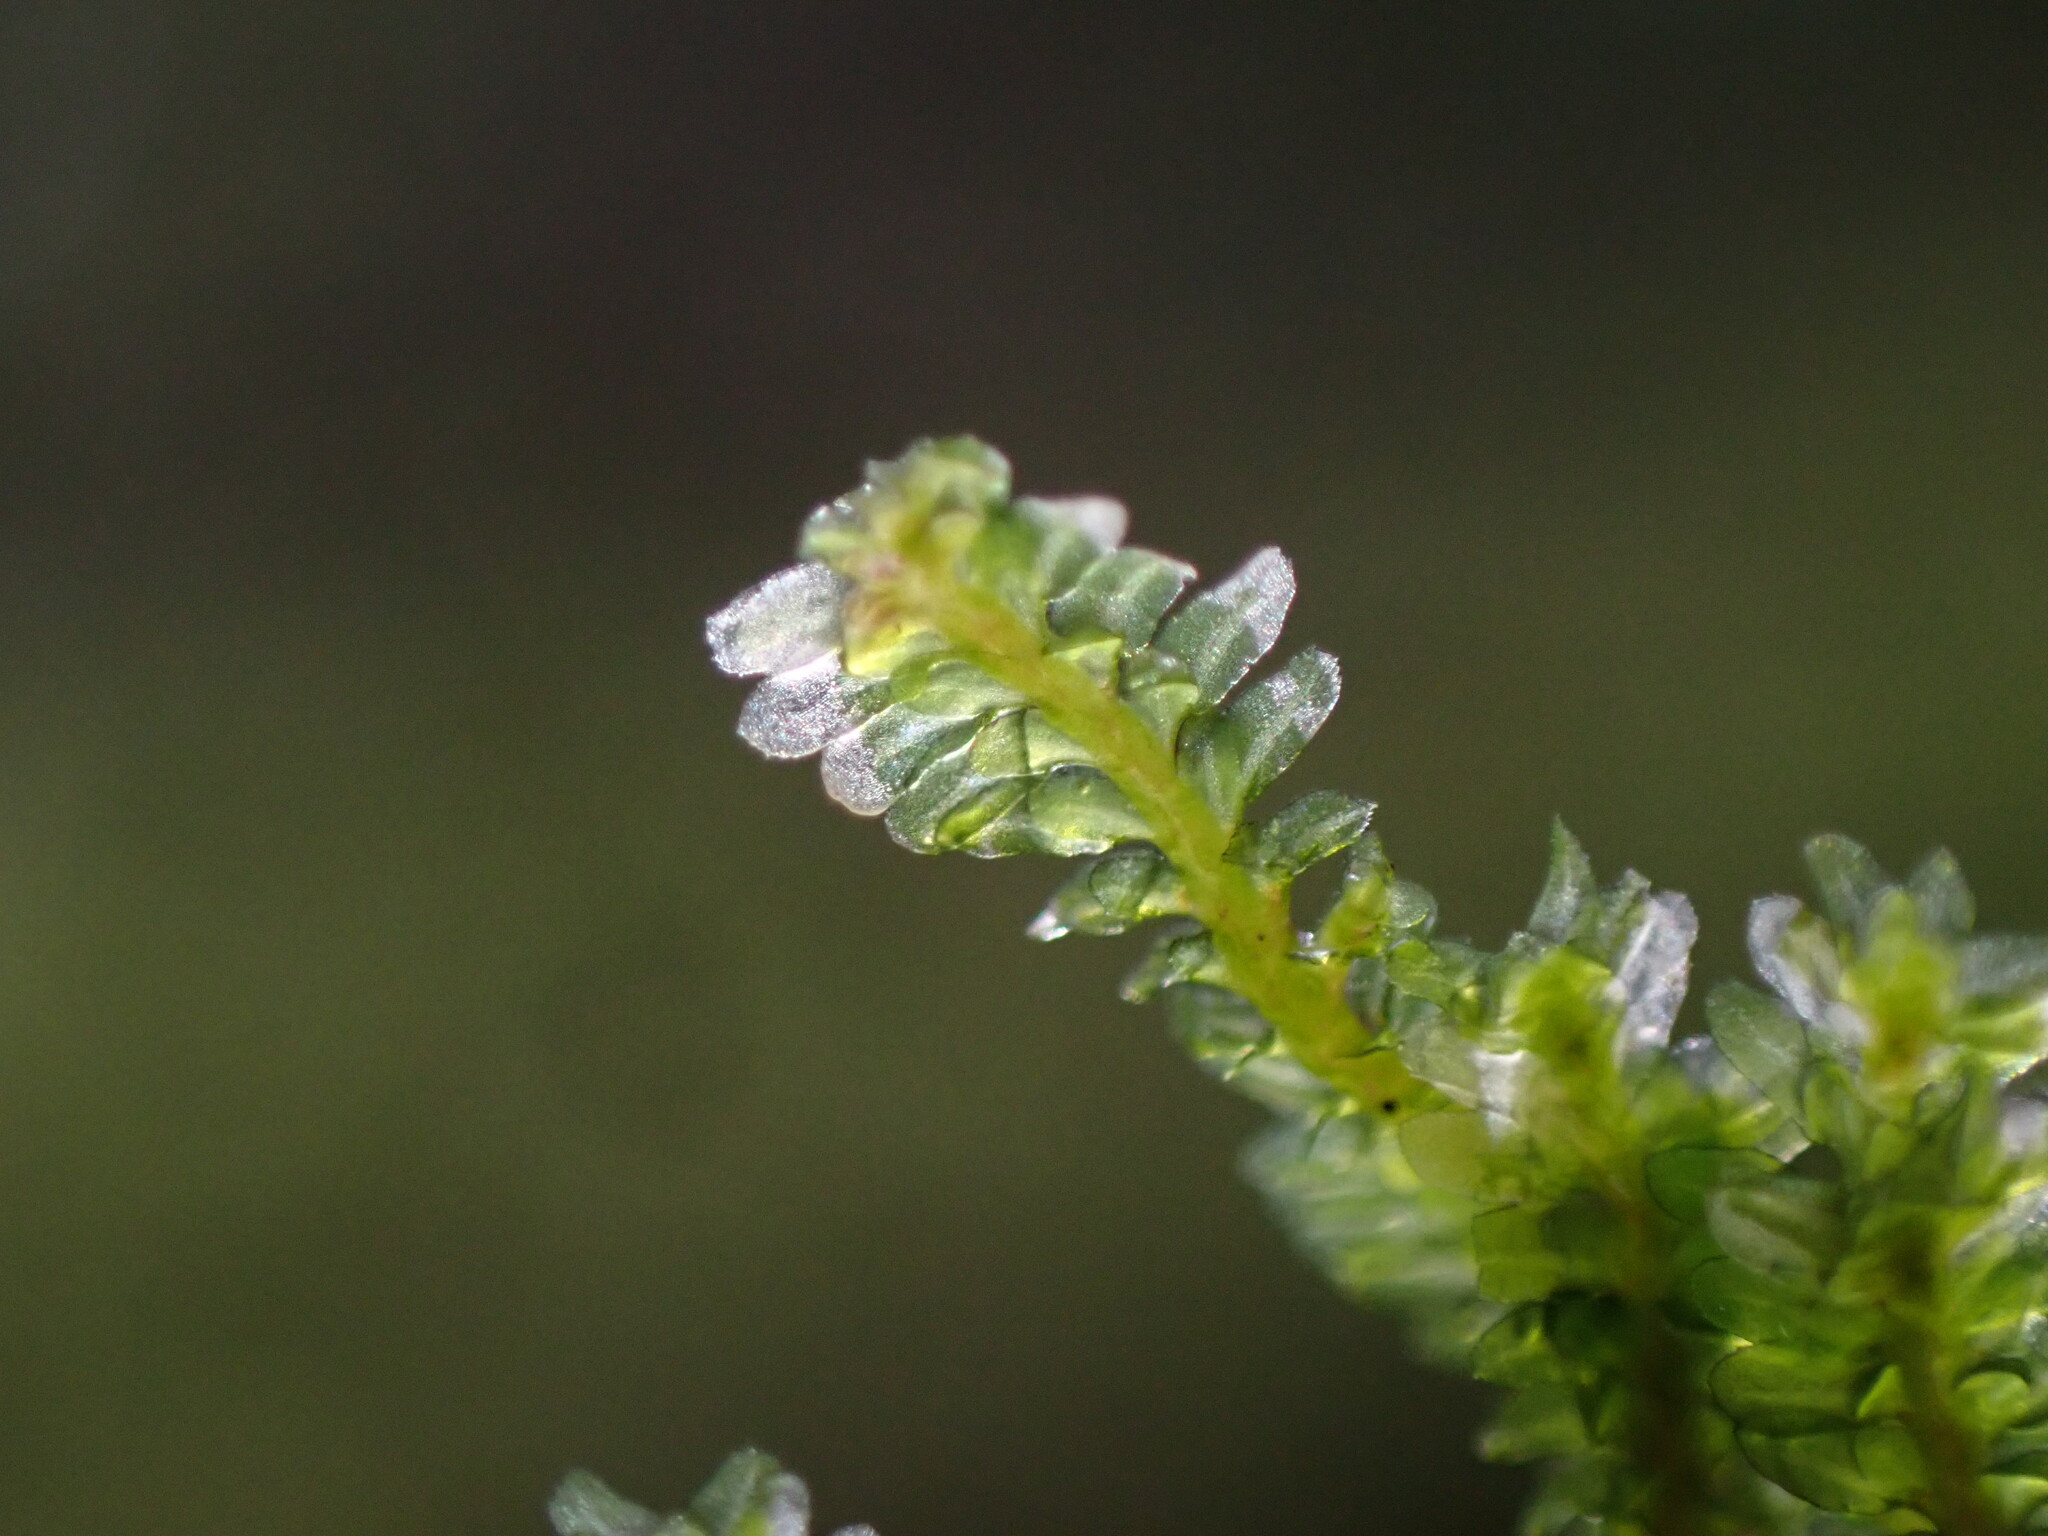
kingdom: Plantae
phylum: Marchantiophyta
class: Jungermanniopsida
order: Jungermanniales
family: Scapaniaceae
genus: Diplophyllum
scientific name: Diplophyllum albicans
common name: White earwort
